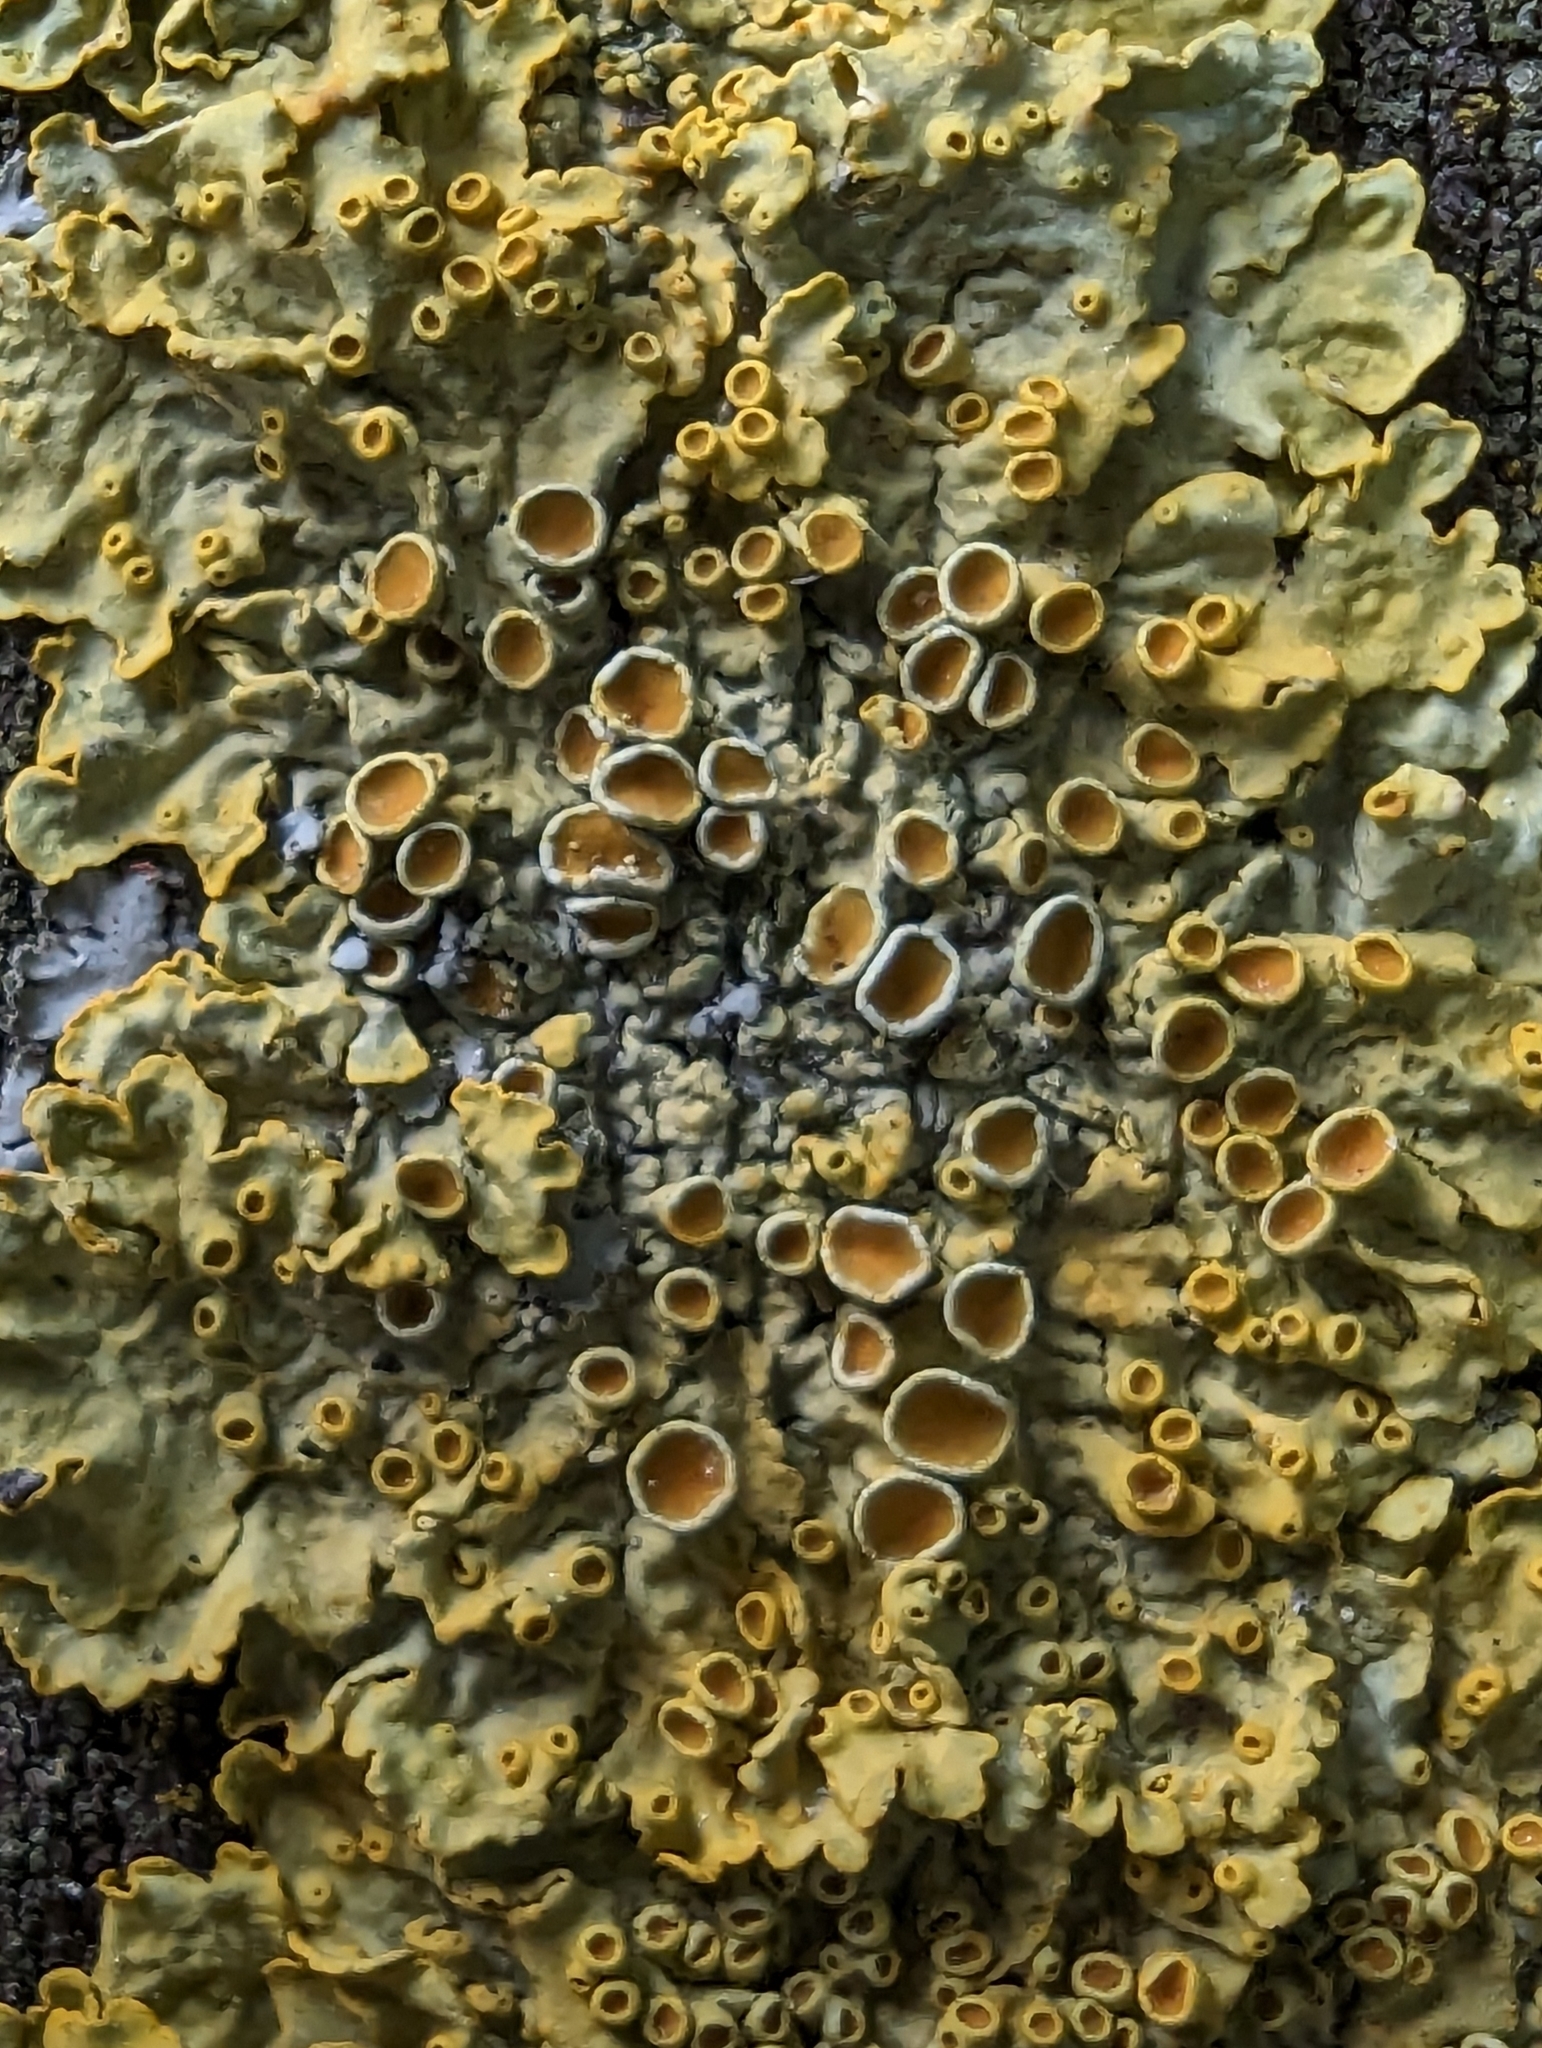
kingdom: Fungi
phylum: Ascomycota
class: Lecanoromycetes
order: Teloschistales
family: Teloschistaceae
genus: Xanthoria
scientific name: Xanthoria parietina
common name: Common orange lichen
